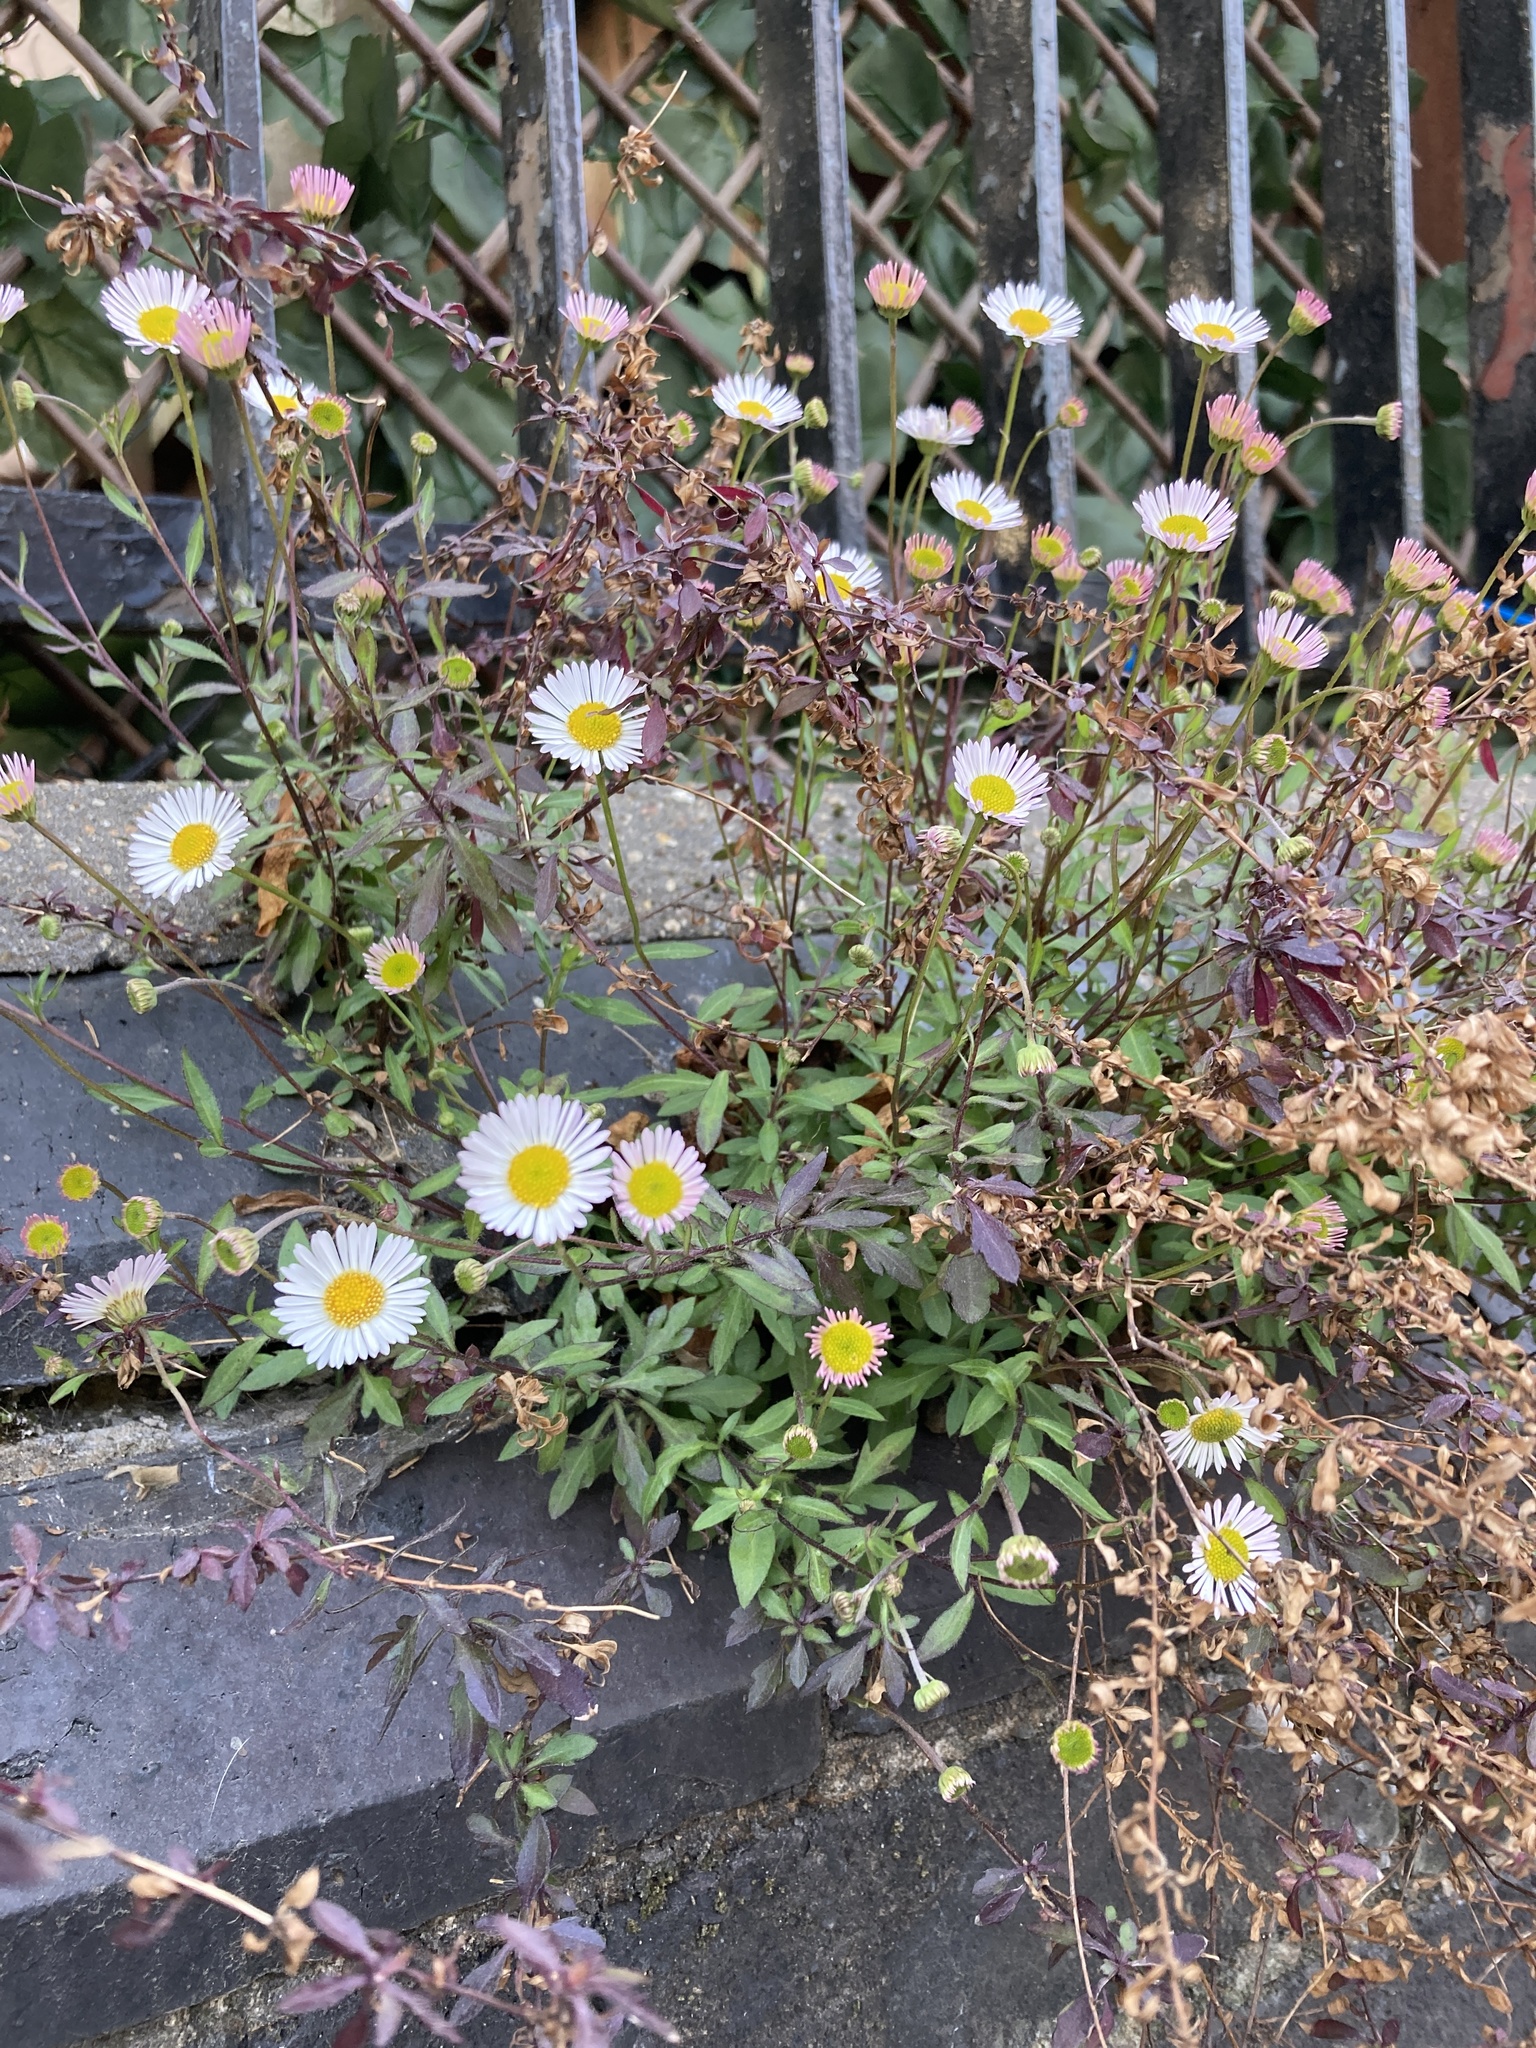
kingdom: Plantae
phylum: Tracheophyta
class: Magnoliopsida
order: Asterales
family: Asteraceae
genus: Erigeron
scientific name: Erigeron karvinskianus
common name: Mexican fleabane
